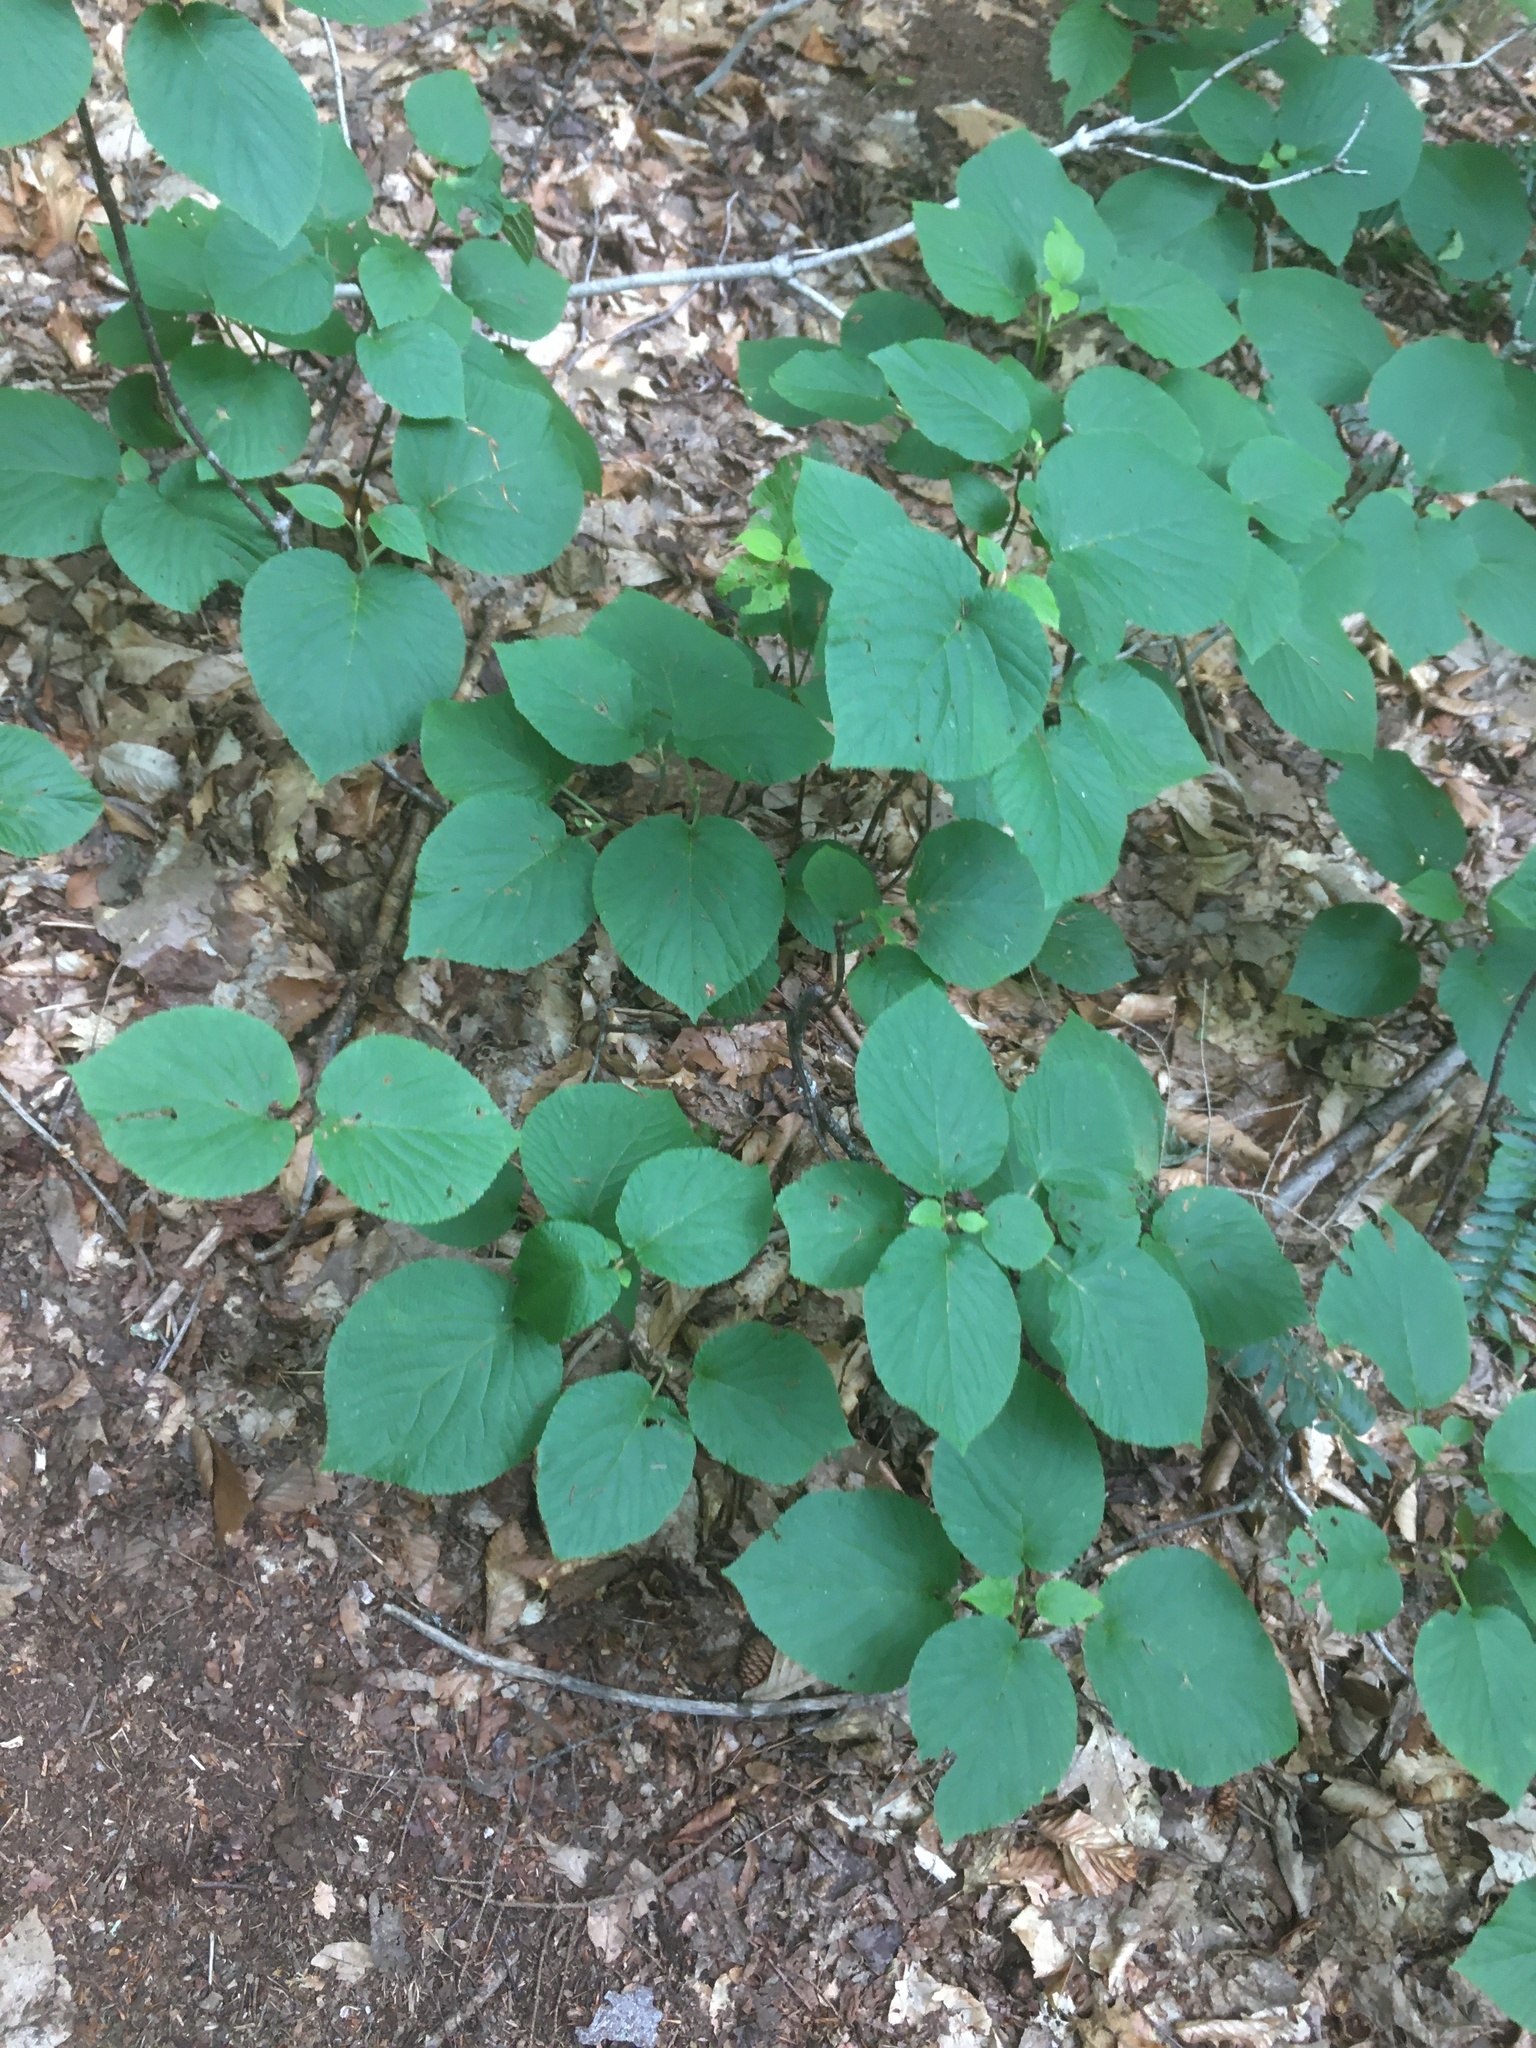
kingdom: Plantae
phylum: Tracheophyta
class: Magnoliopsida
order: Dipsacales
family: Viburnaceae
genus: Viburnum
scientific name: Viburnum lantanoides
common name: Hobblebush
